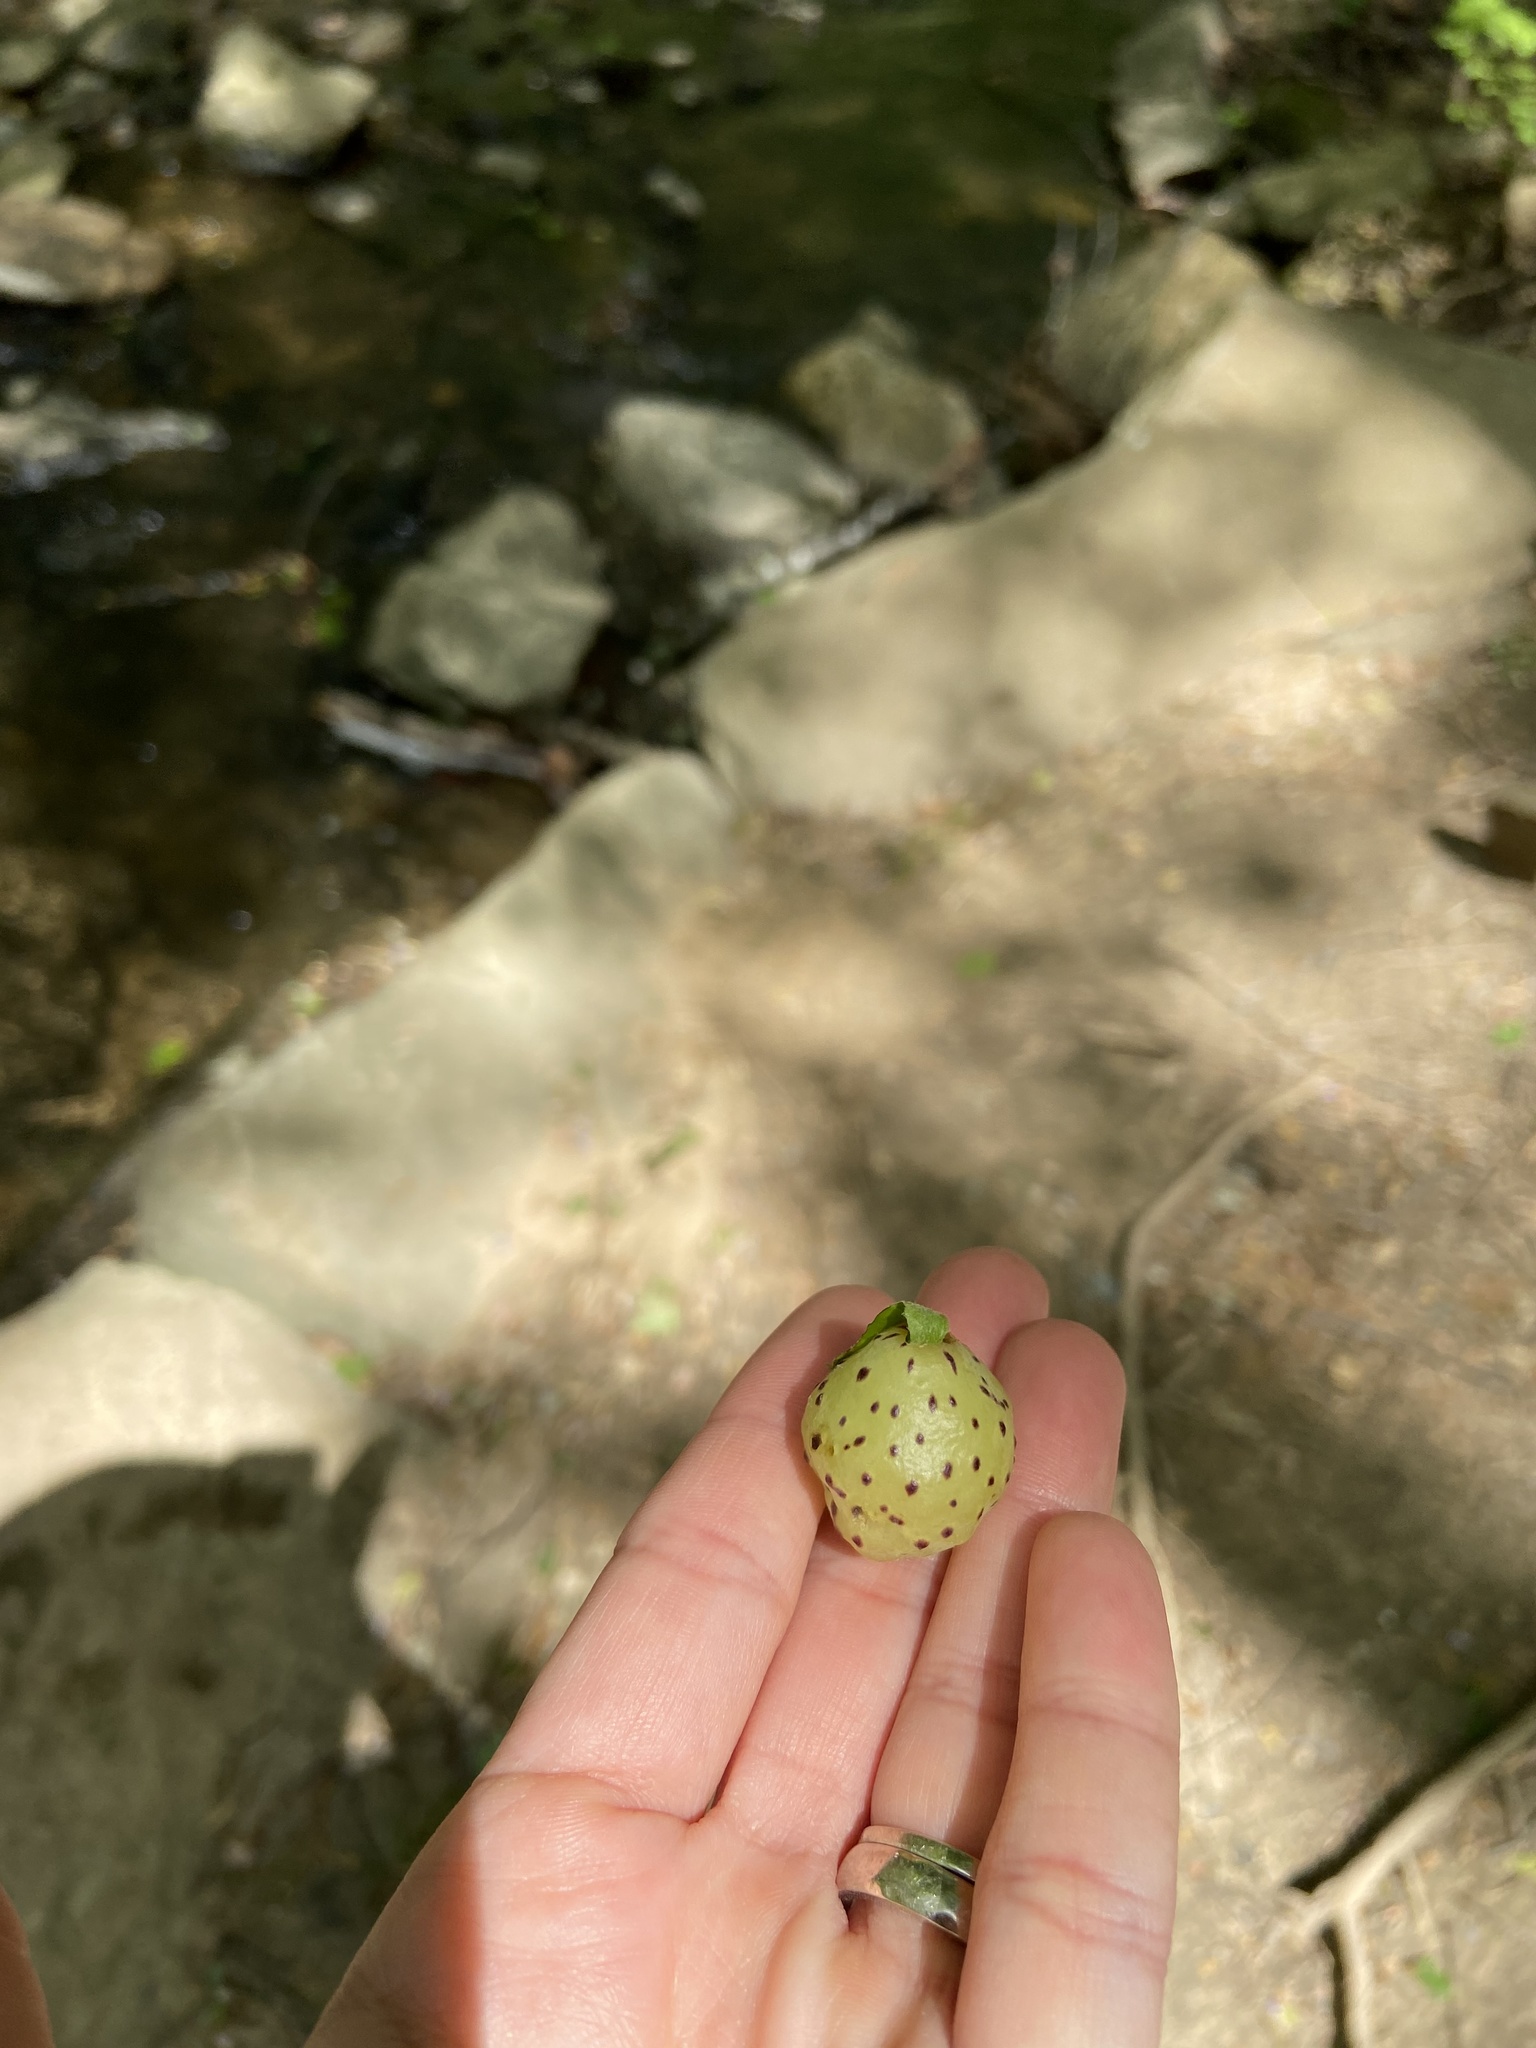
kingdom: Animalia
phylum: Arthropoda
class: Insecta
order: Hymenoptera
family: Cynipidae
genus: Amphibolips
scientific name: Amphibolips
